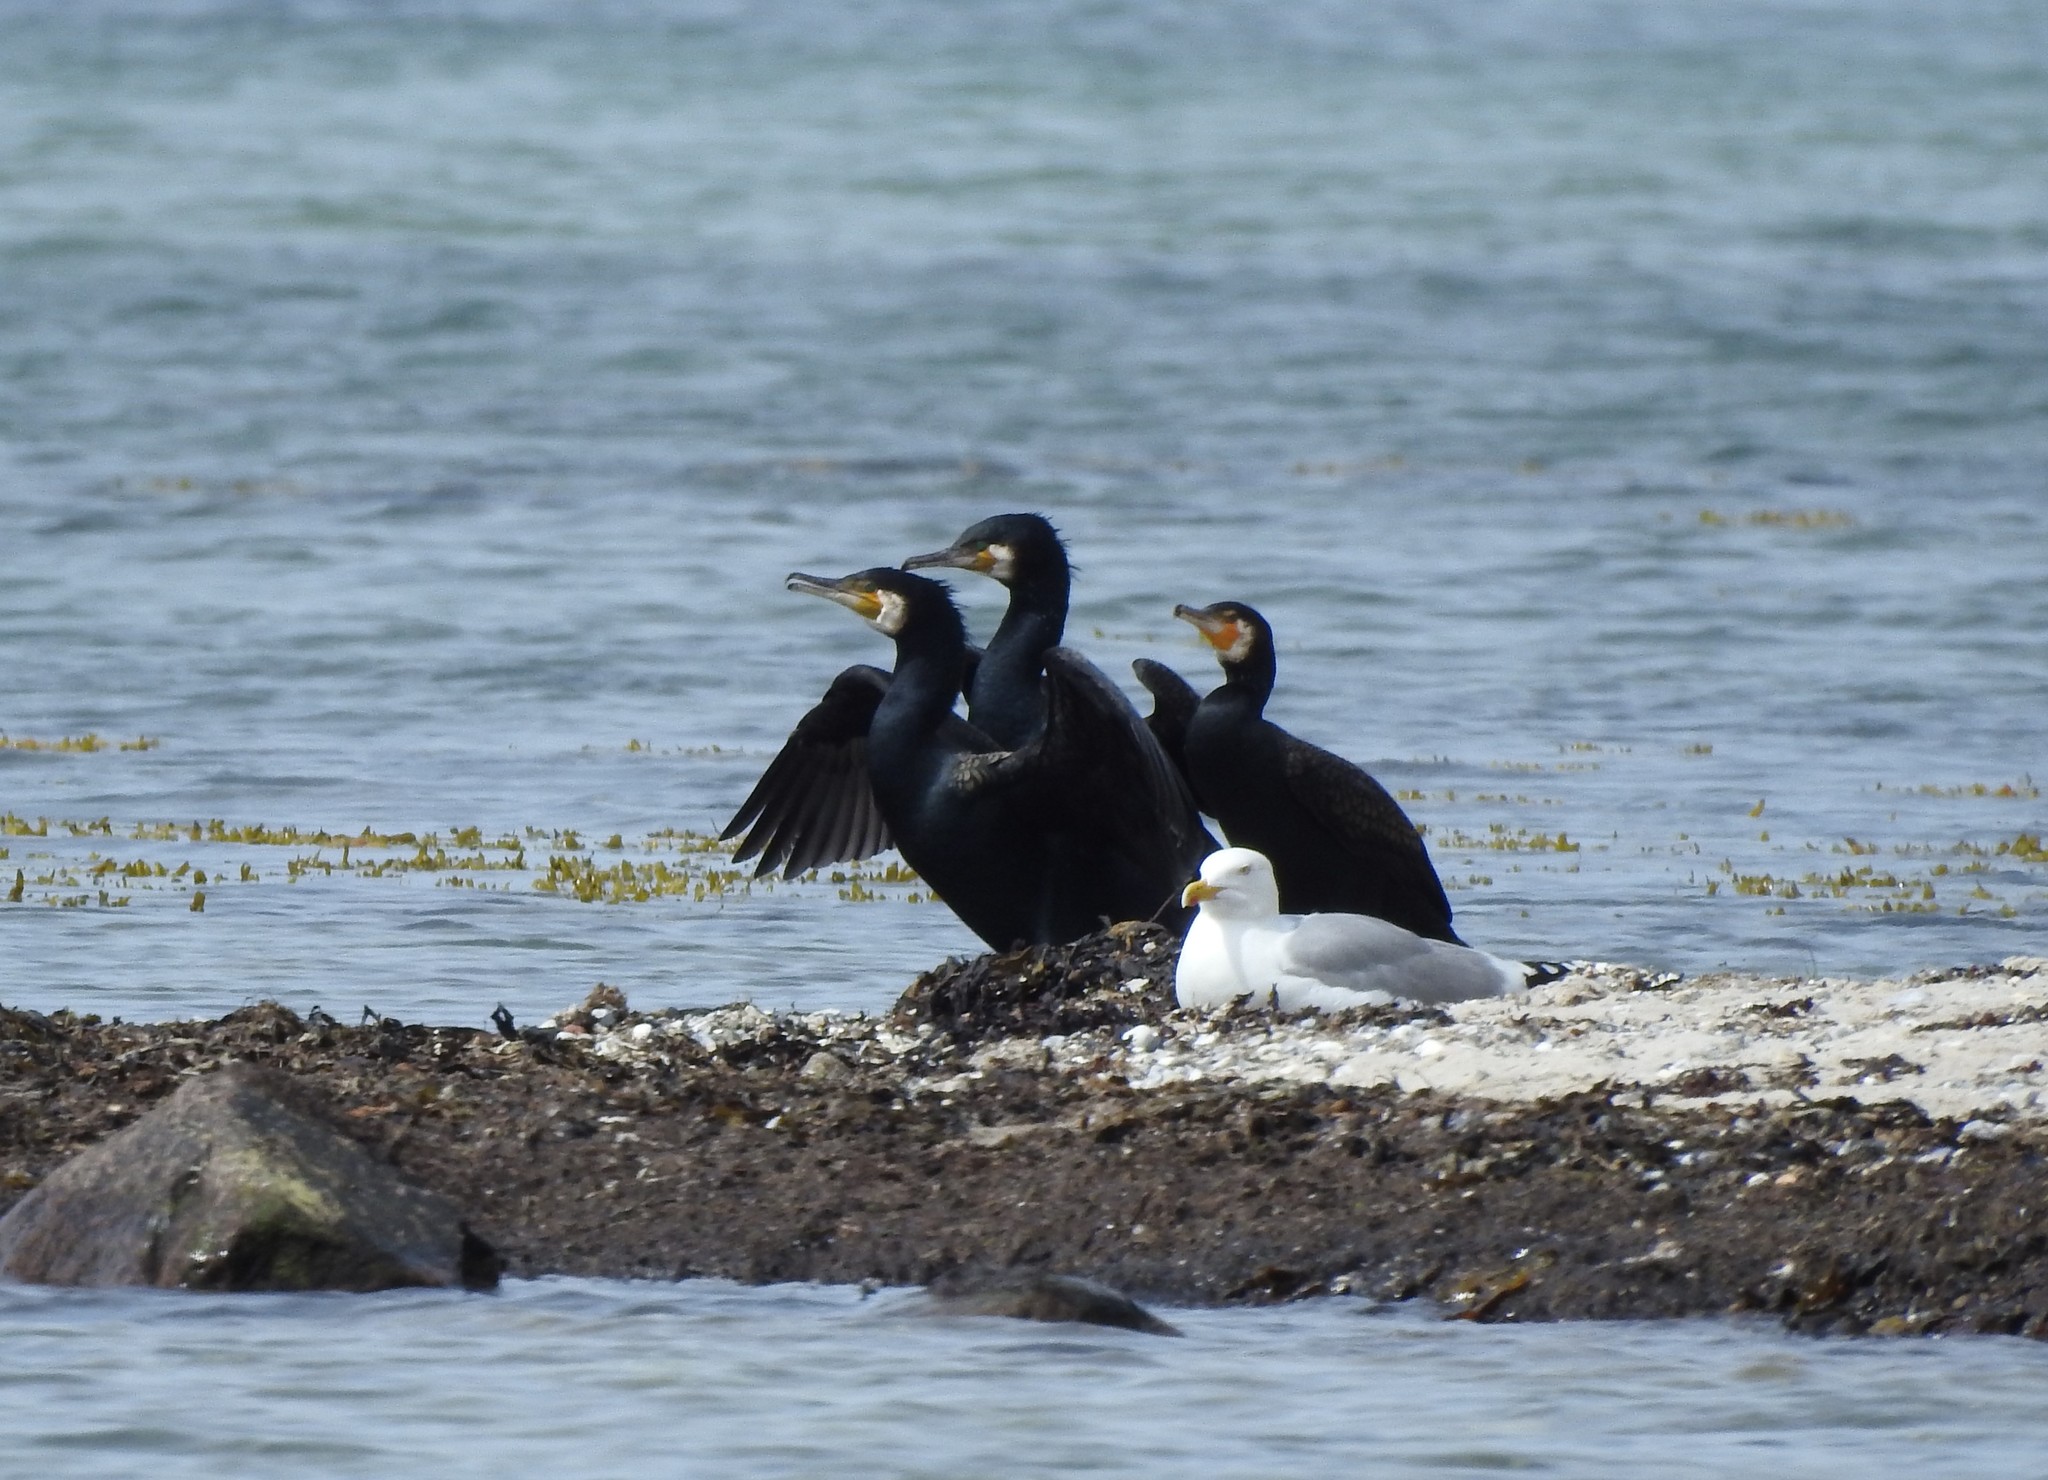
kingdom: Animalia
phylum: Chordata
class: Aves
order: Suliformes
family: Phalacrocoracidae
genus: Phalacrocorax
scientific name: Phalacrocorax carbo
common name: Great cormorant
